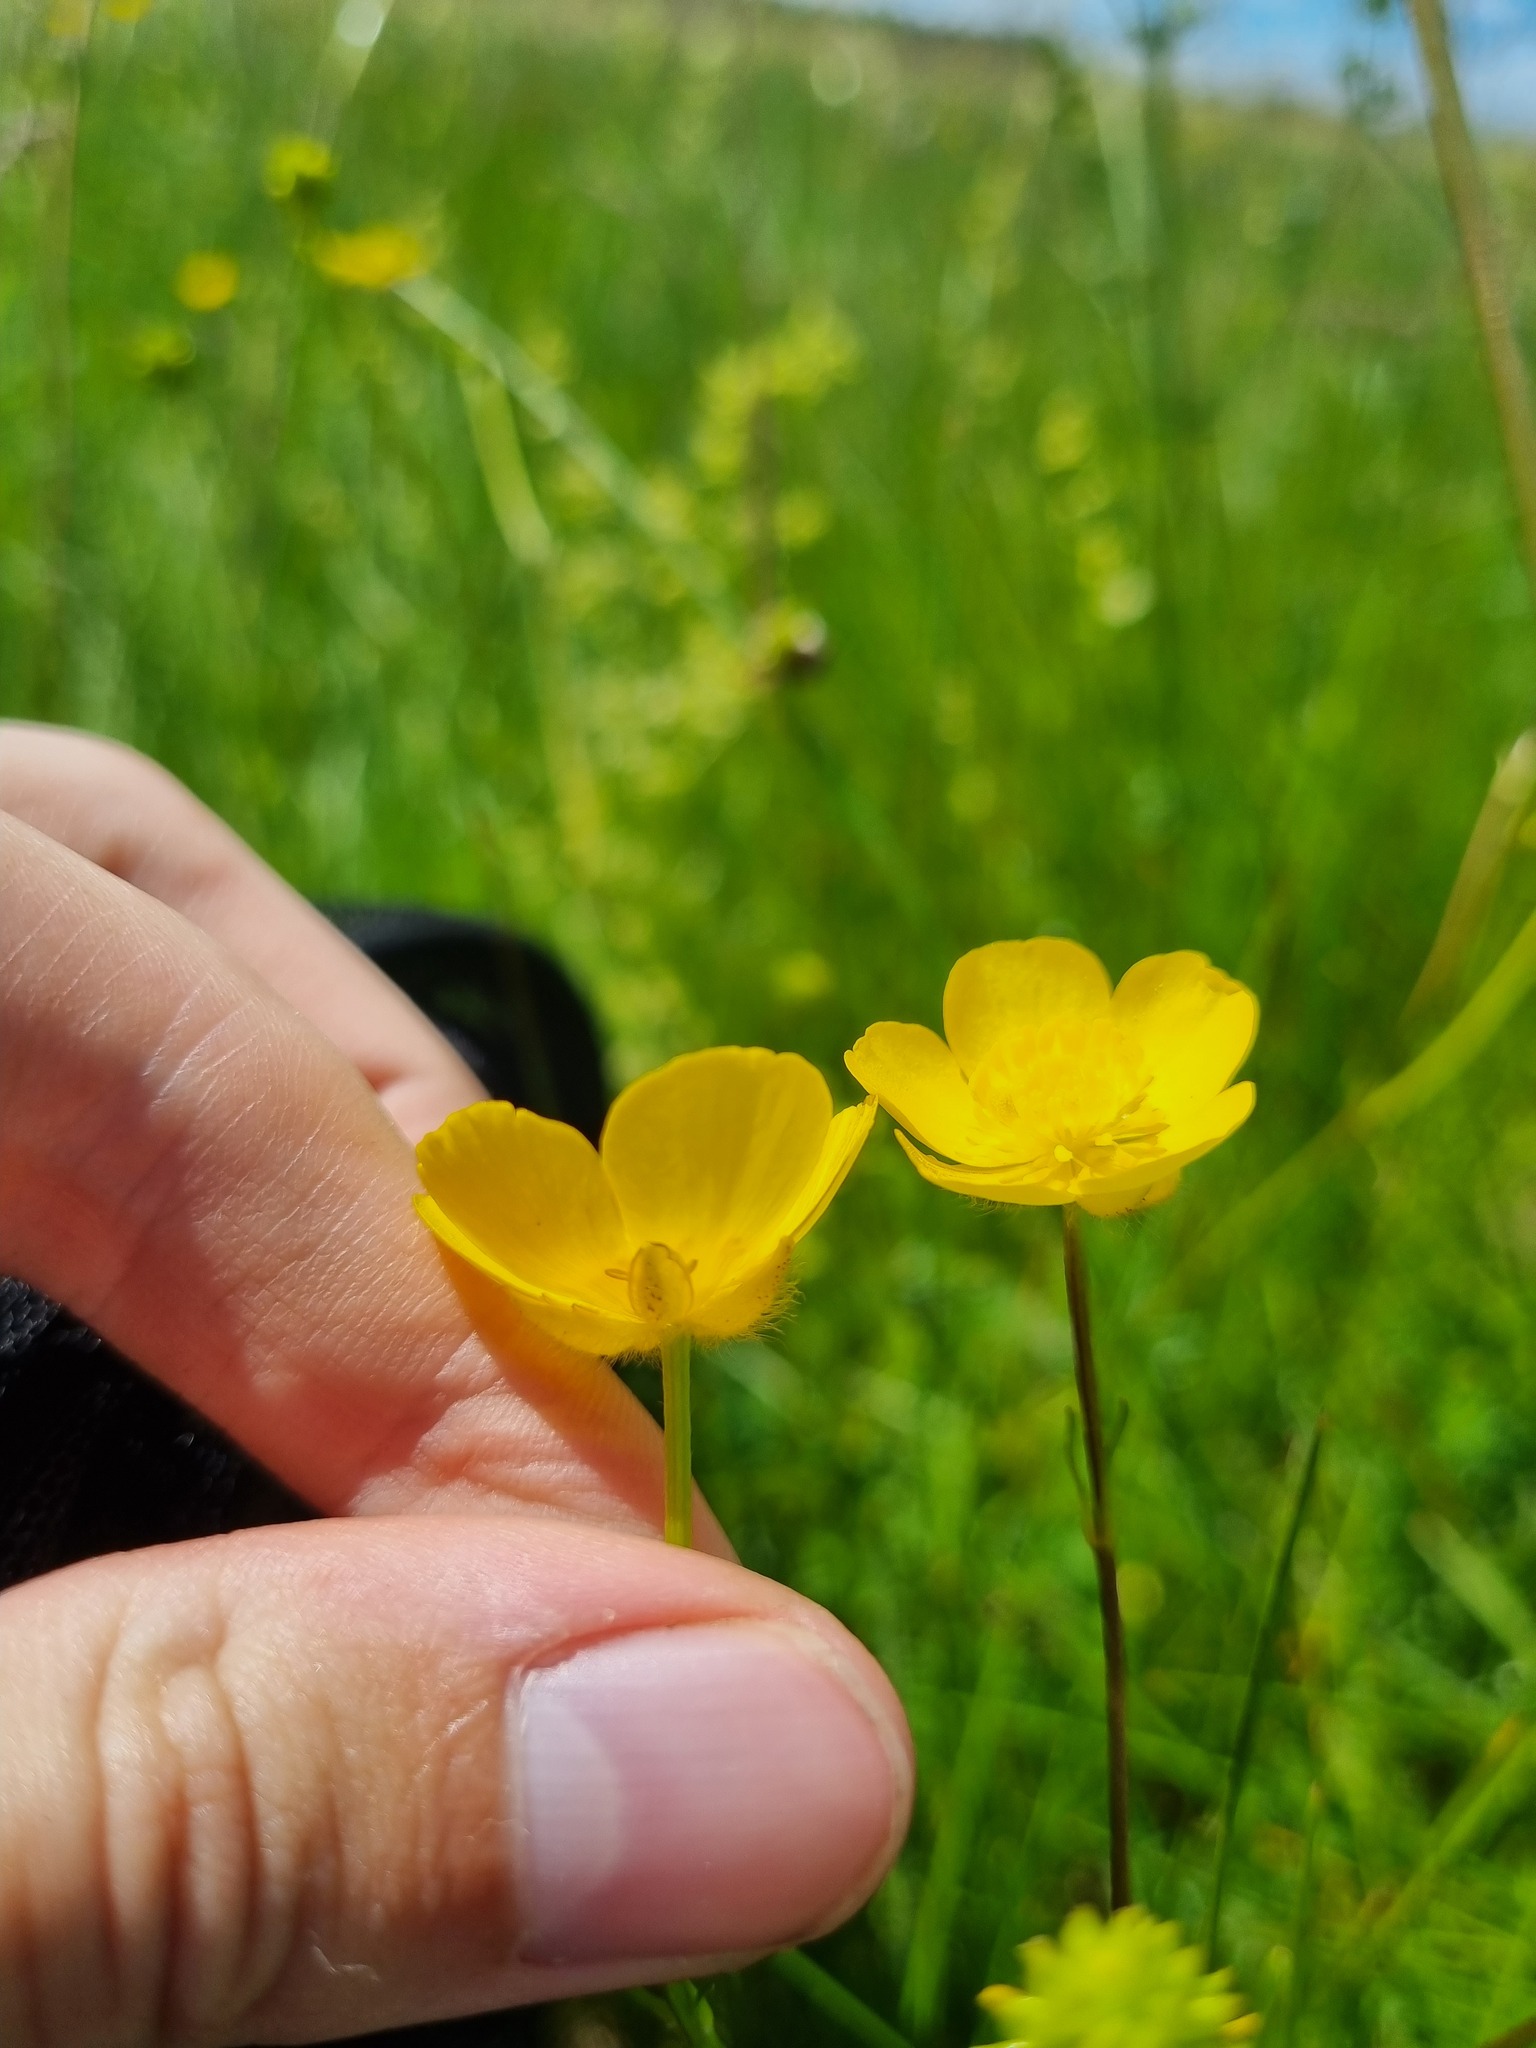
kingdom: Plantae
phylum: Tracheophyta
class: Magnoliopsida
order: Ranunculales
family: Ranunculaceae
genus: Ranunculus
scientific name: Ranunculus polyanthemos
